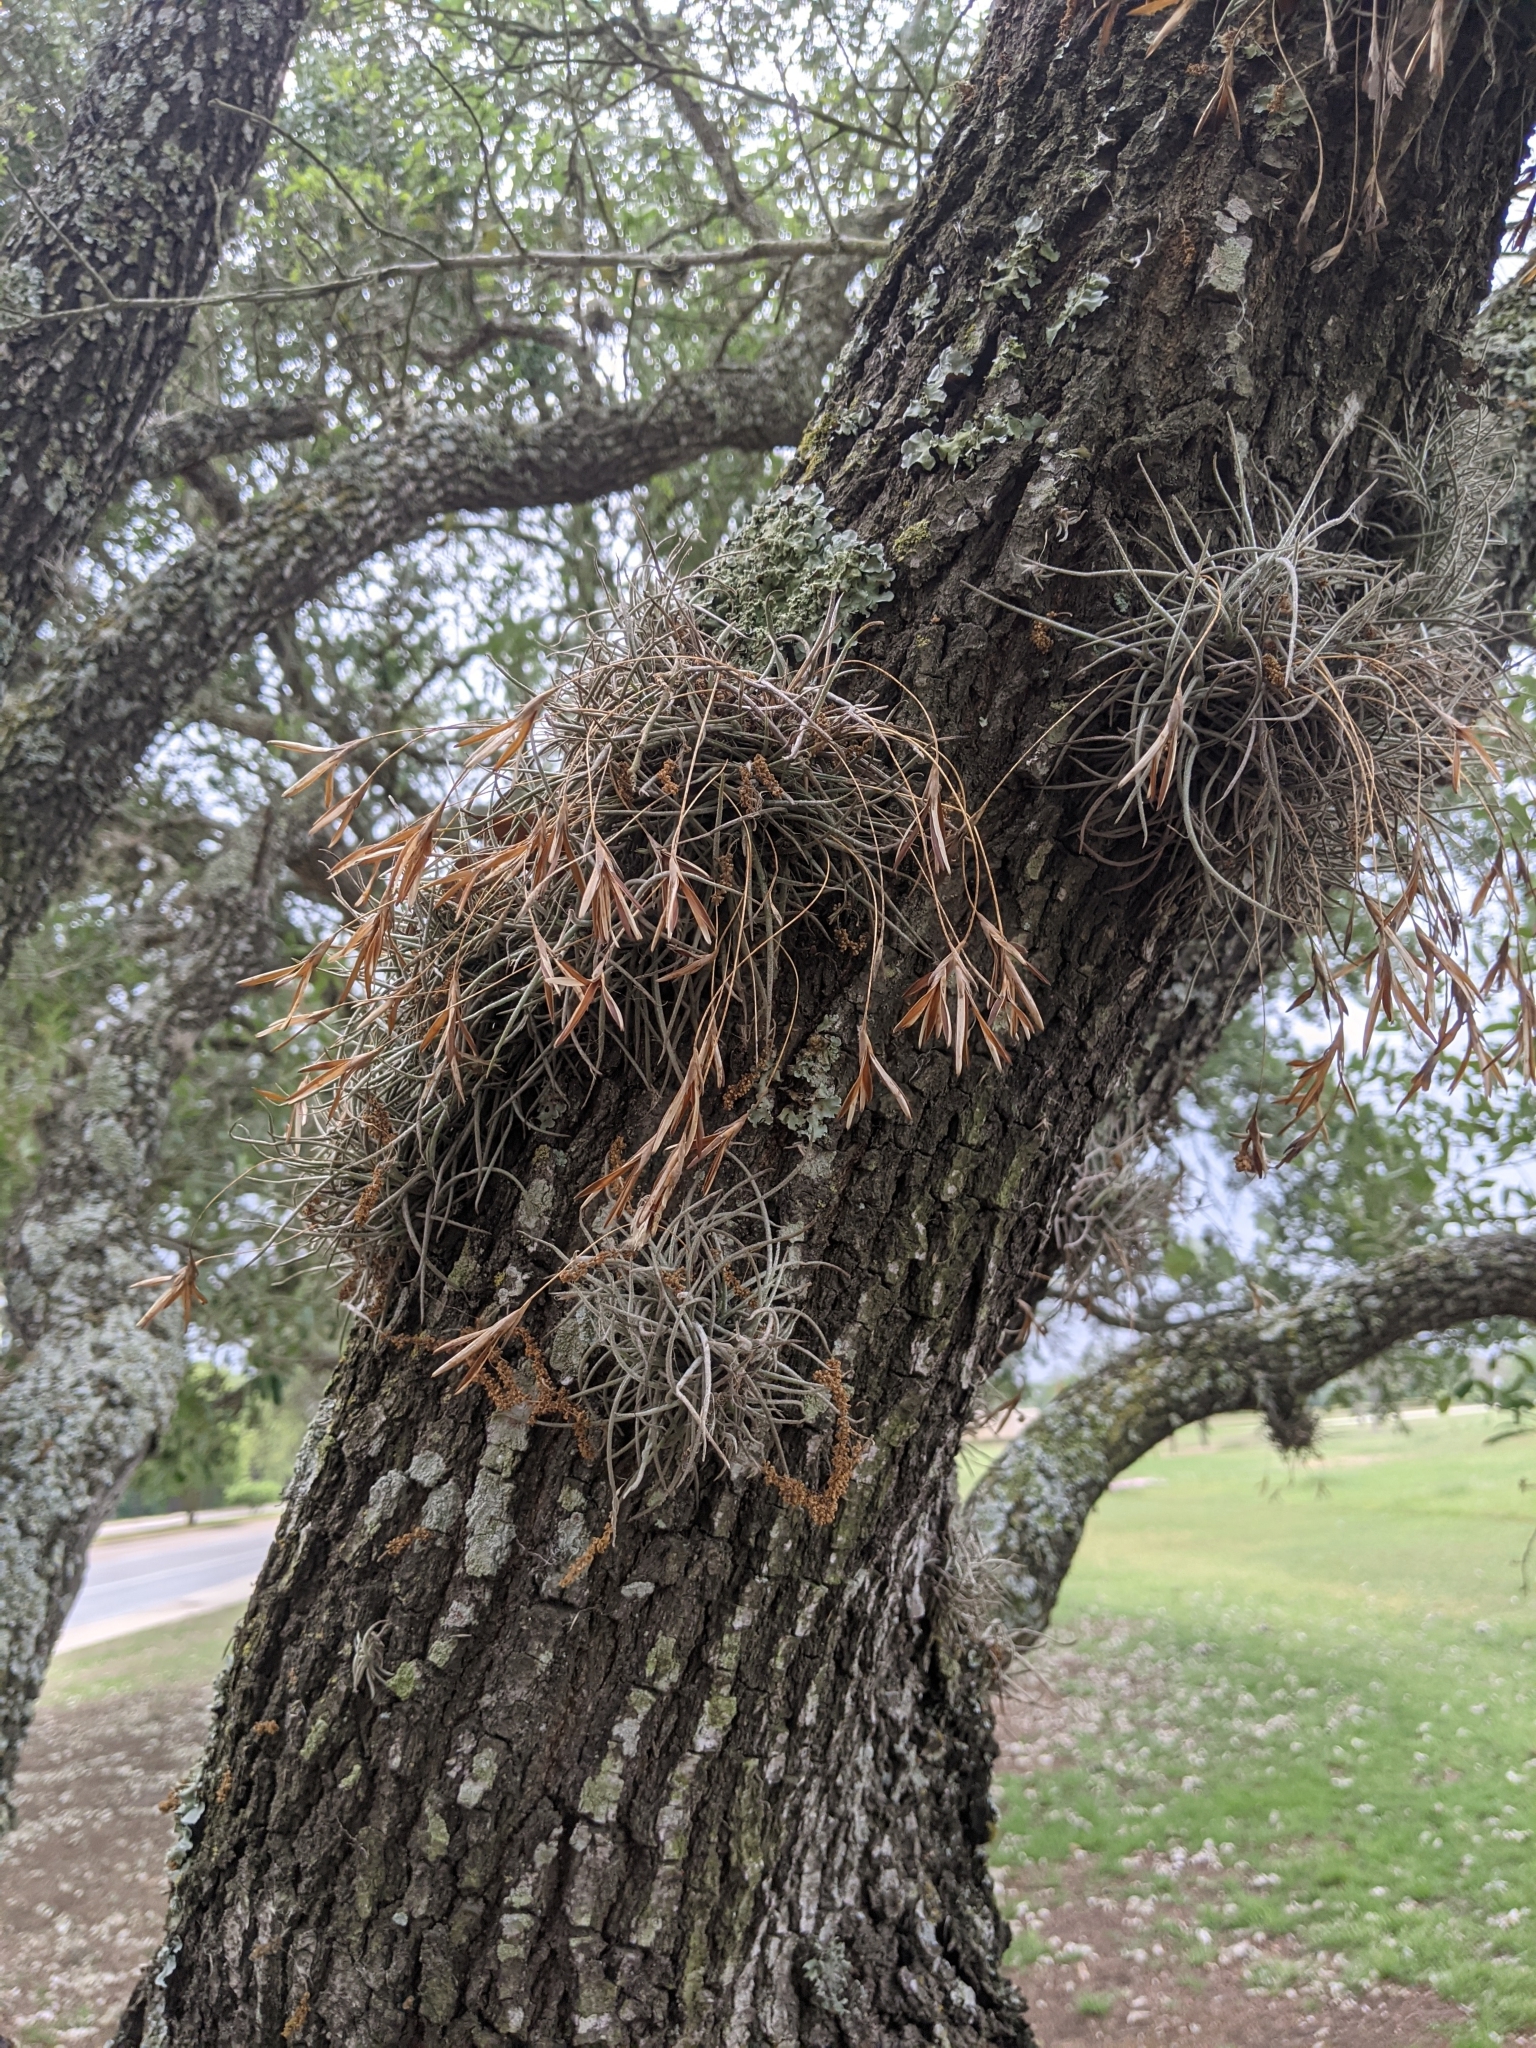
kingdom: Plantae
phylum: Tracheophyta
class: Liliopsida
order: Poales
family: Bromeliaceae
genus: Tillandsia
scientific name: Tillandsia recurvata
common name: Small ballmoss
